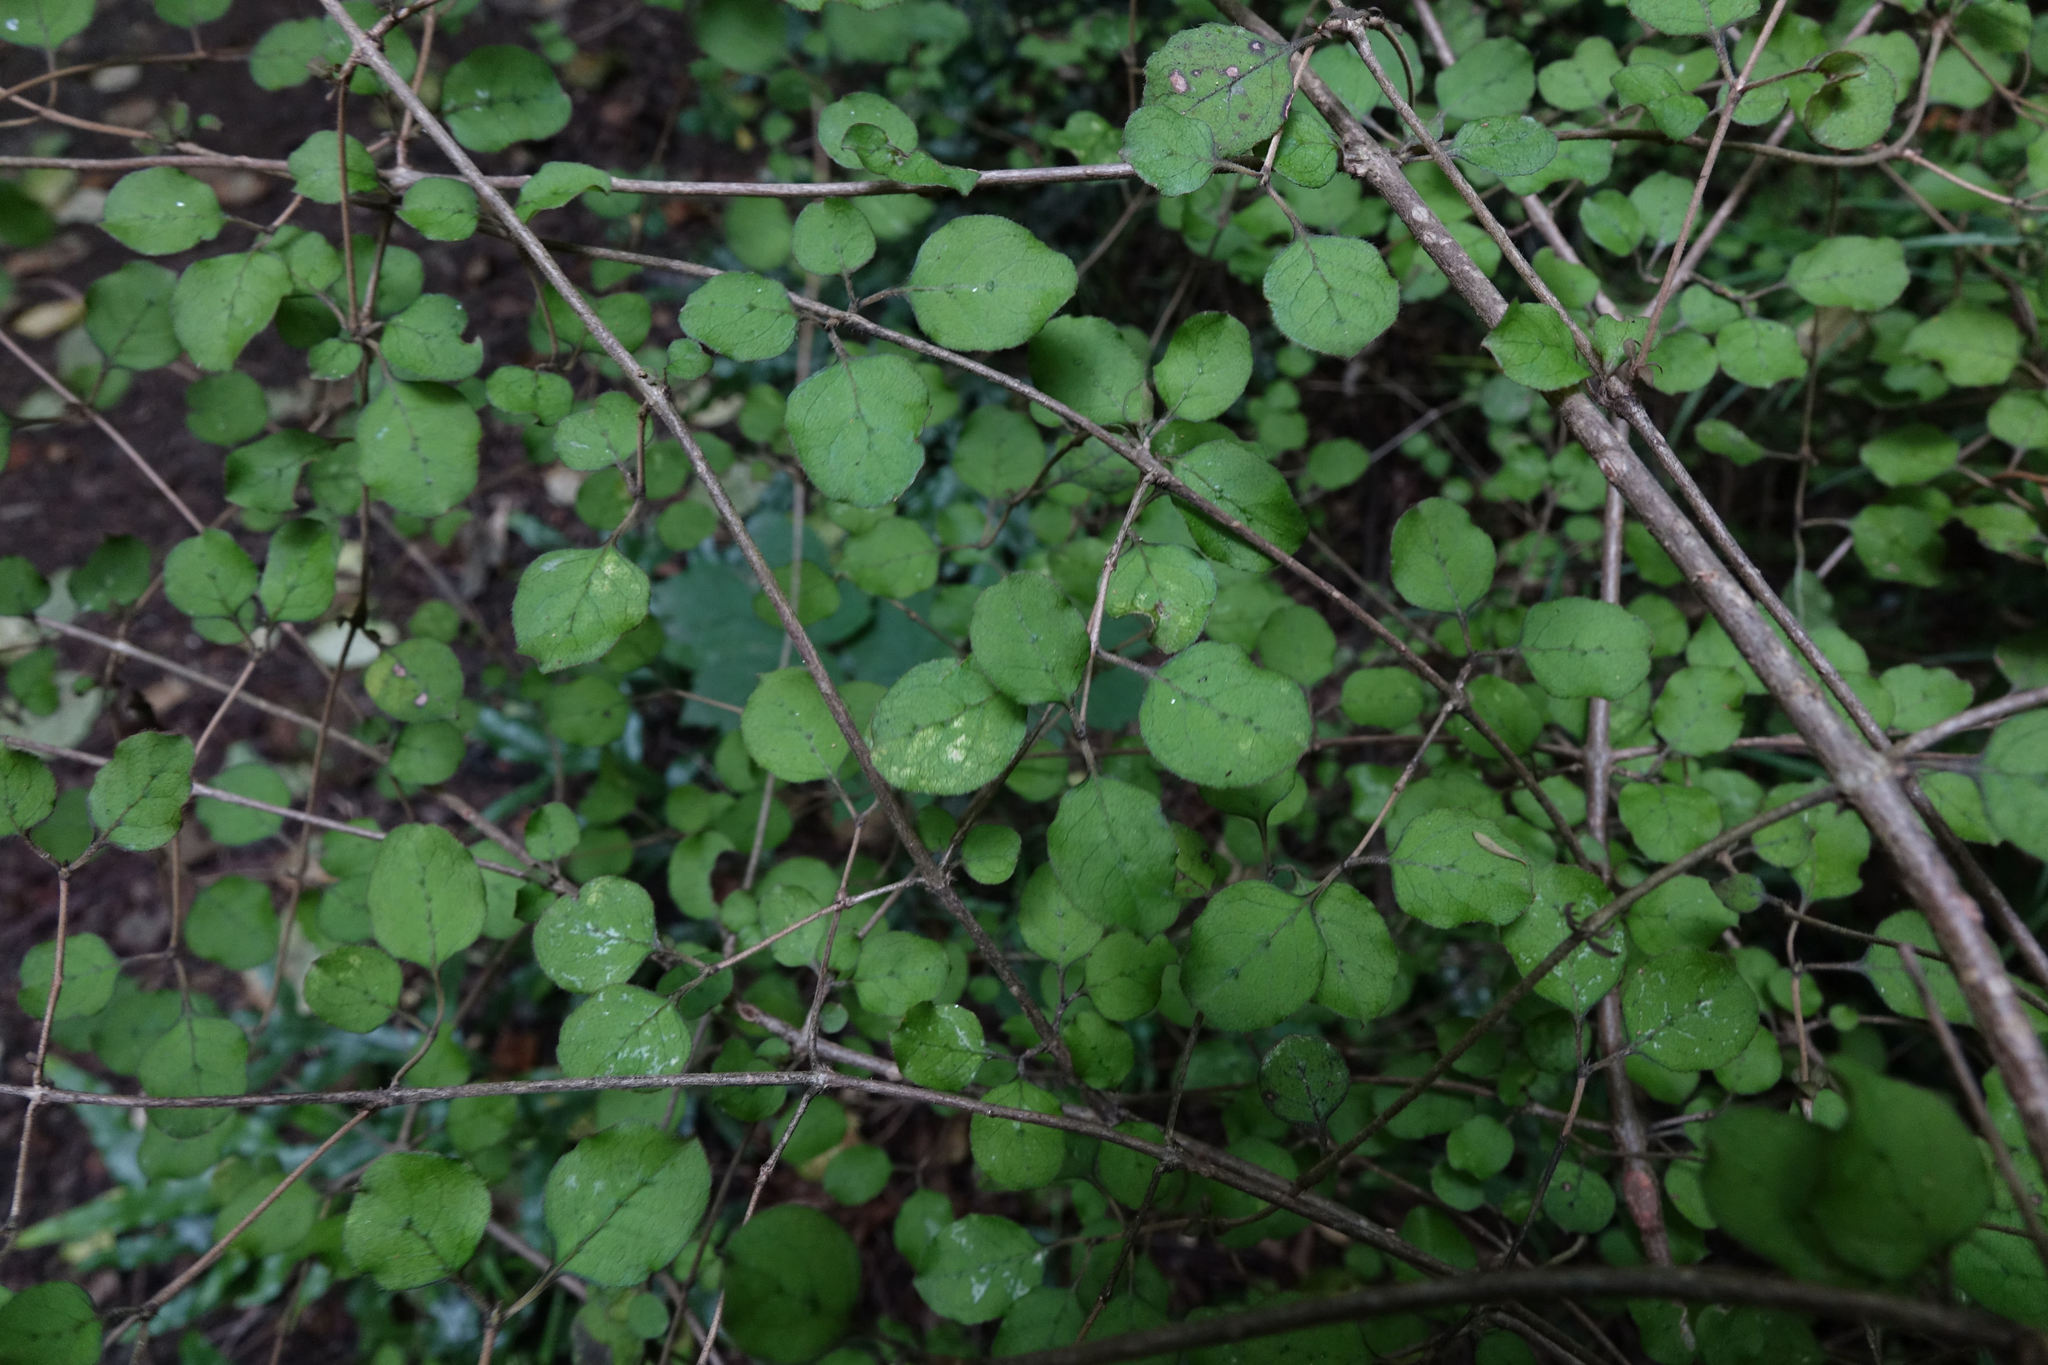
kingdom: Plantae
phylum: Tracheophyta
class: Magnoliopsida
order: Gentianales
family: Rubiaceae
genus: Coprosma
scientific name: Coprosma rotundifolia
